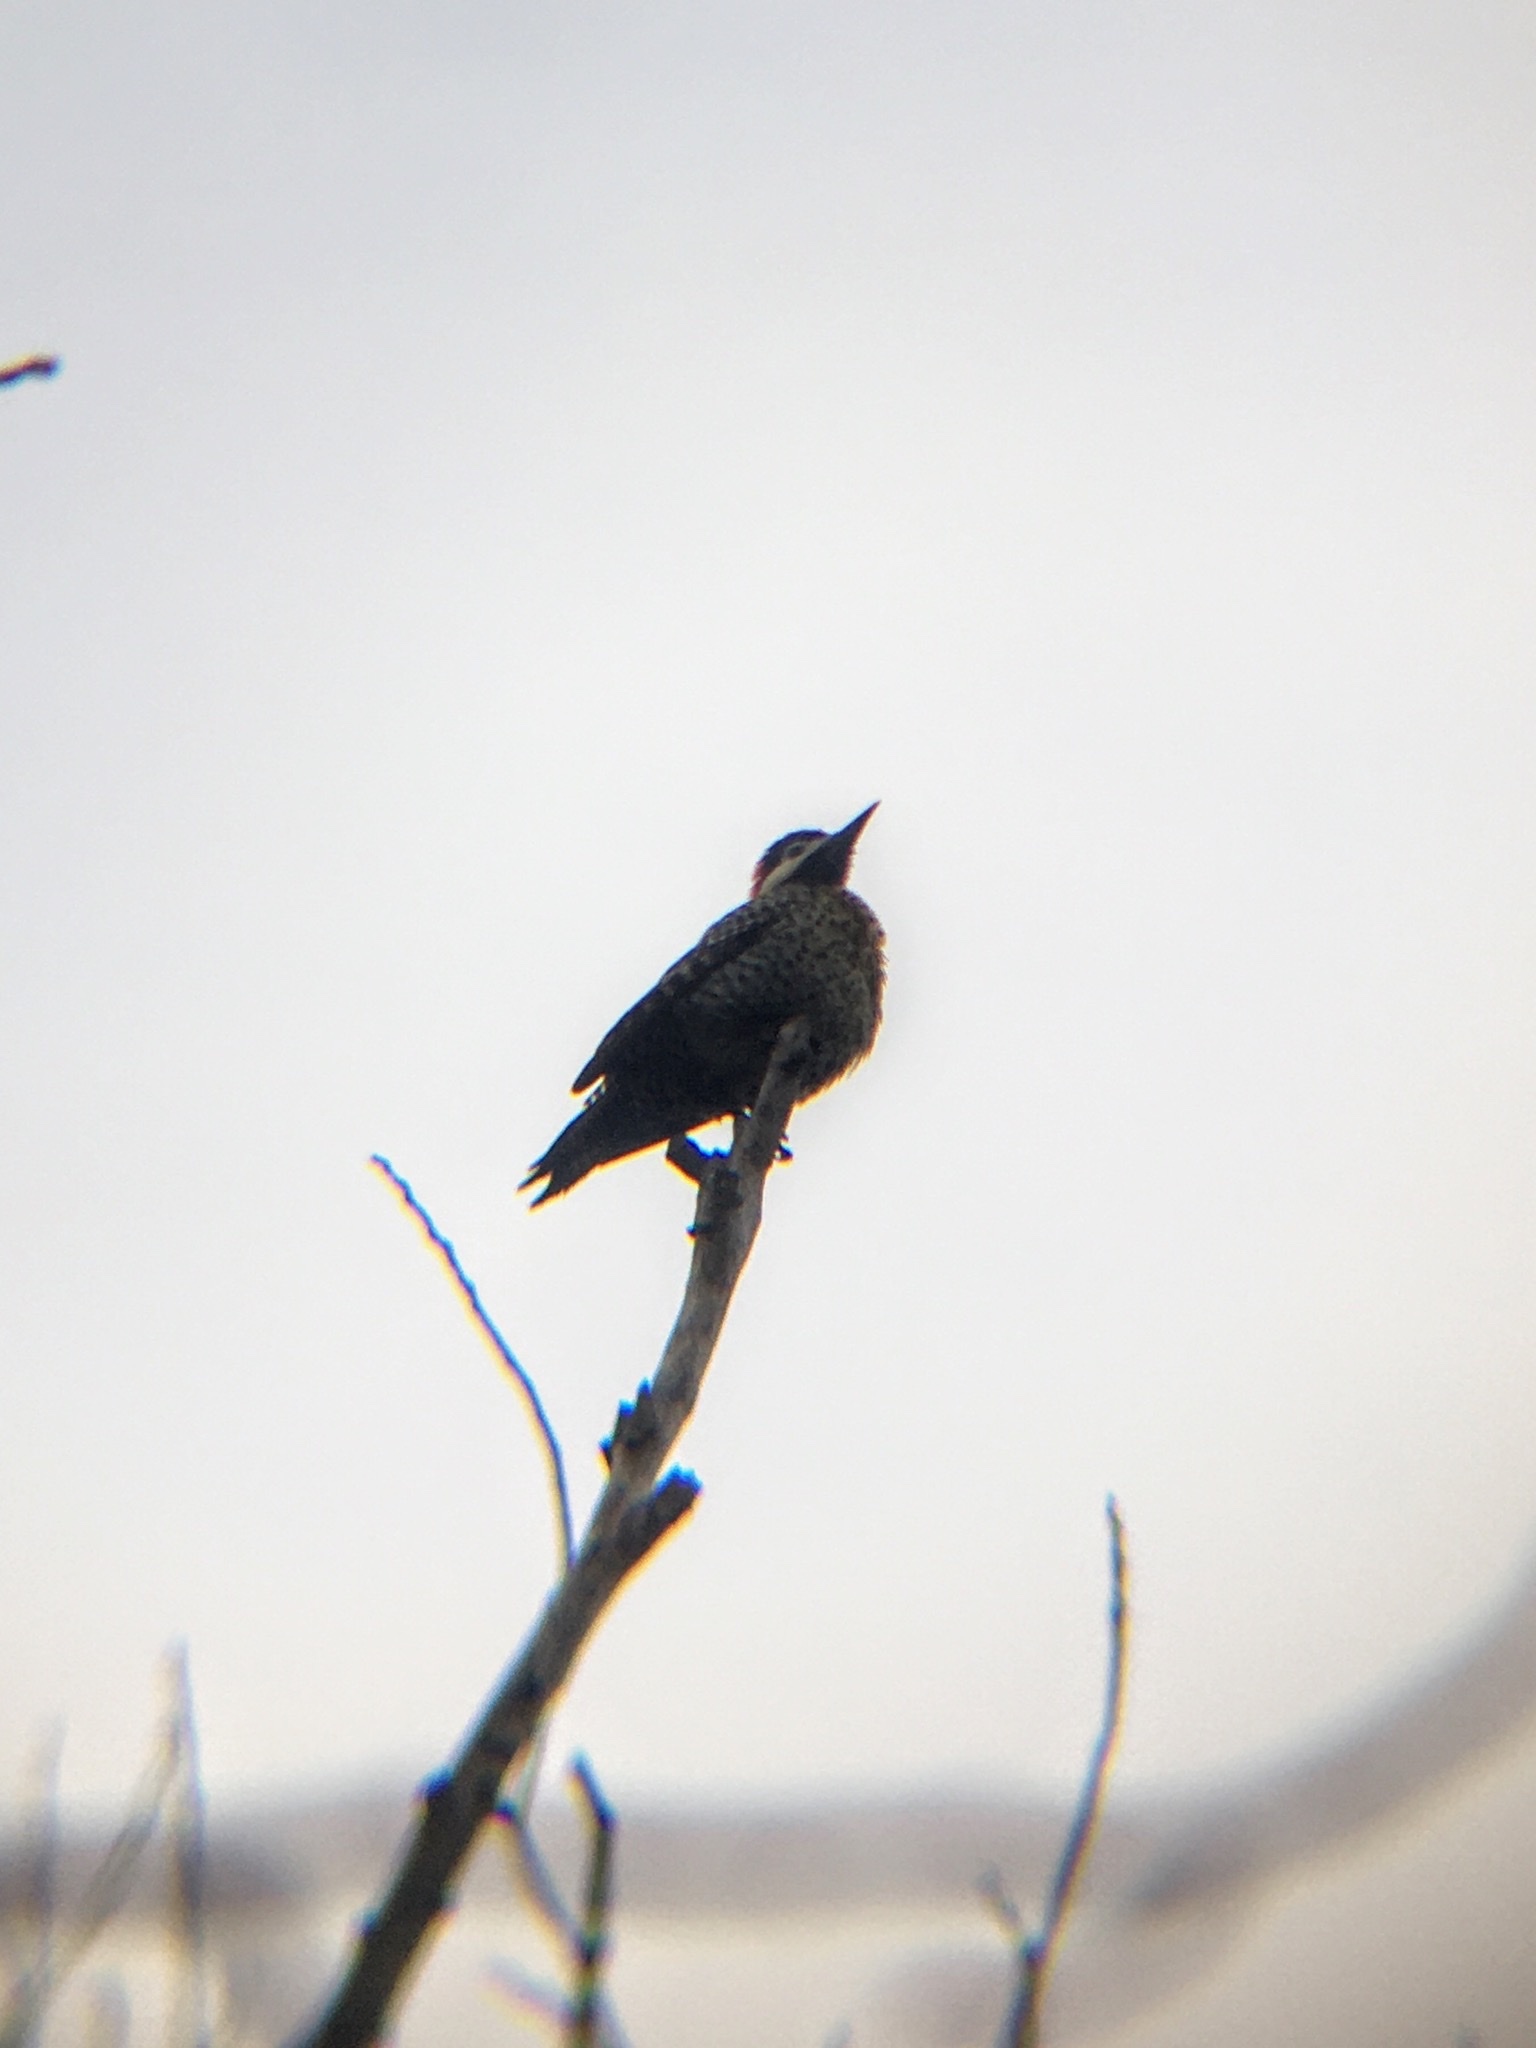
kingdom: Animalia
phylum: Chordata
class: Aves
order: Piciformes
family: Picidae
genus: Colaptes
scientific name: Colaptes melanochloros
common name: Green-barred woodpecker
